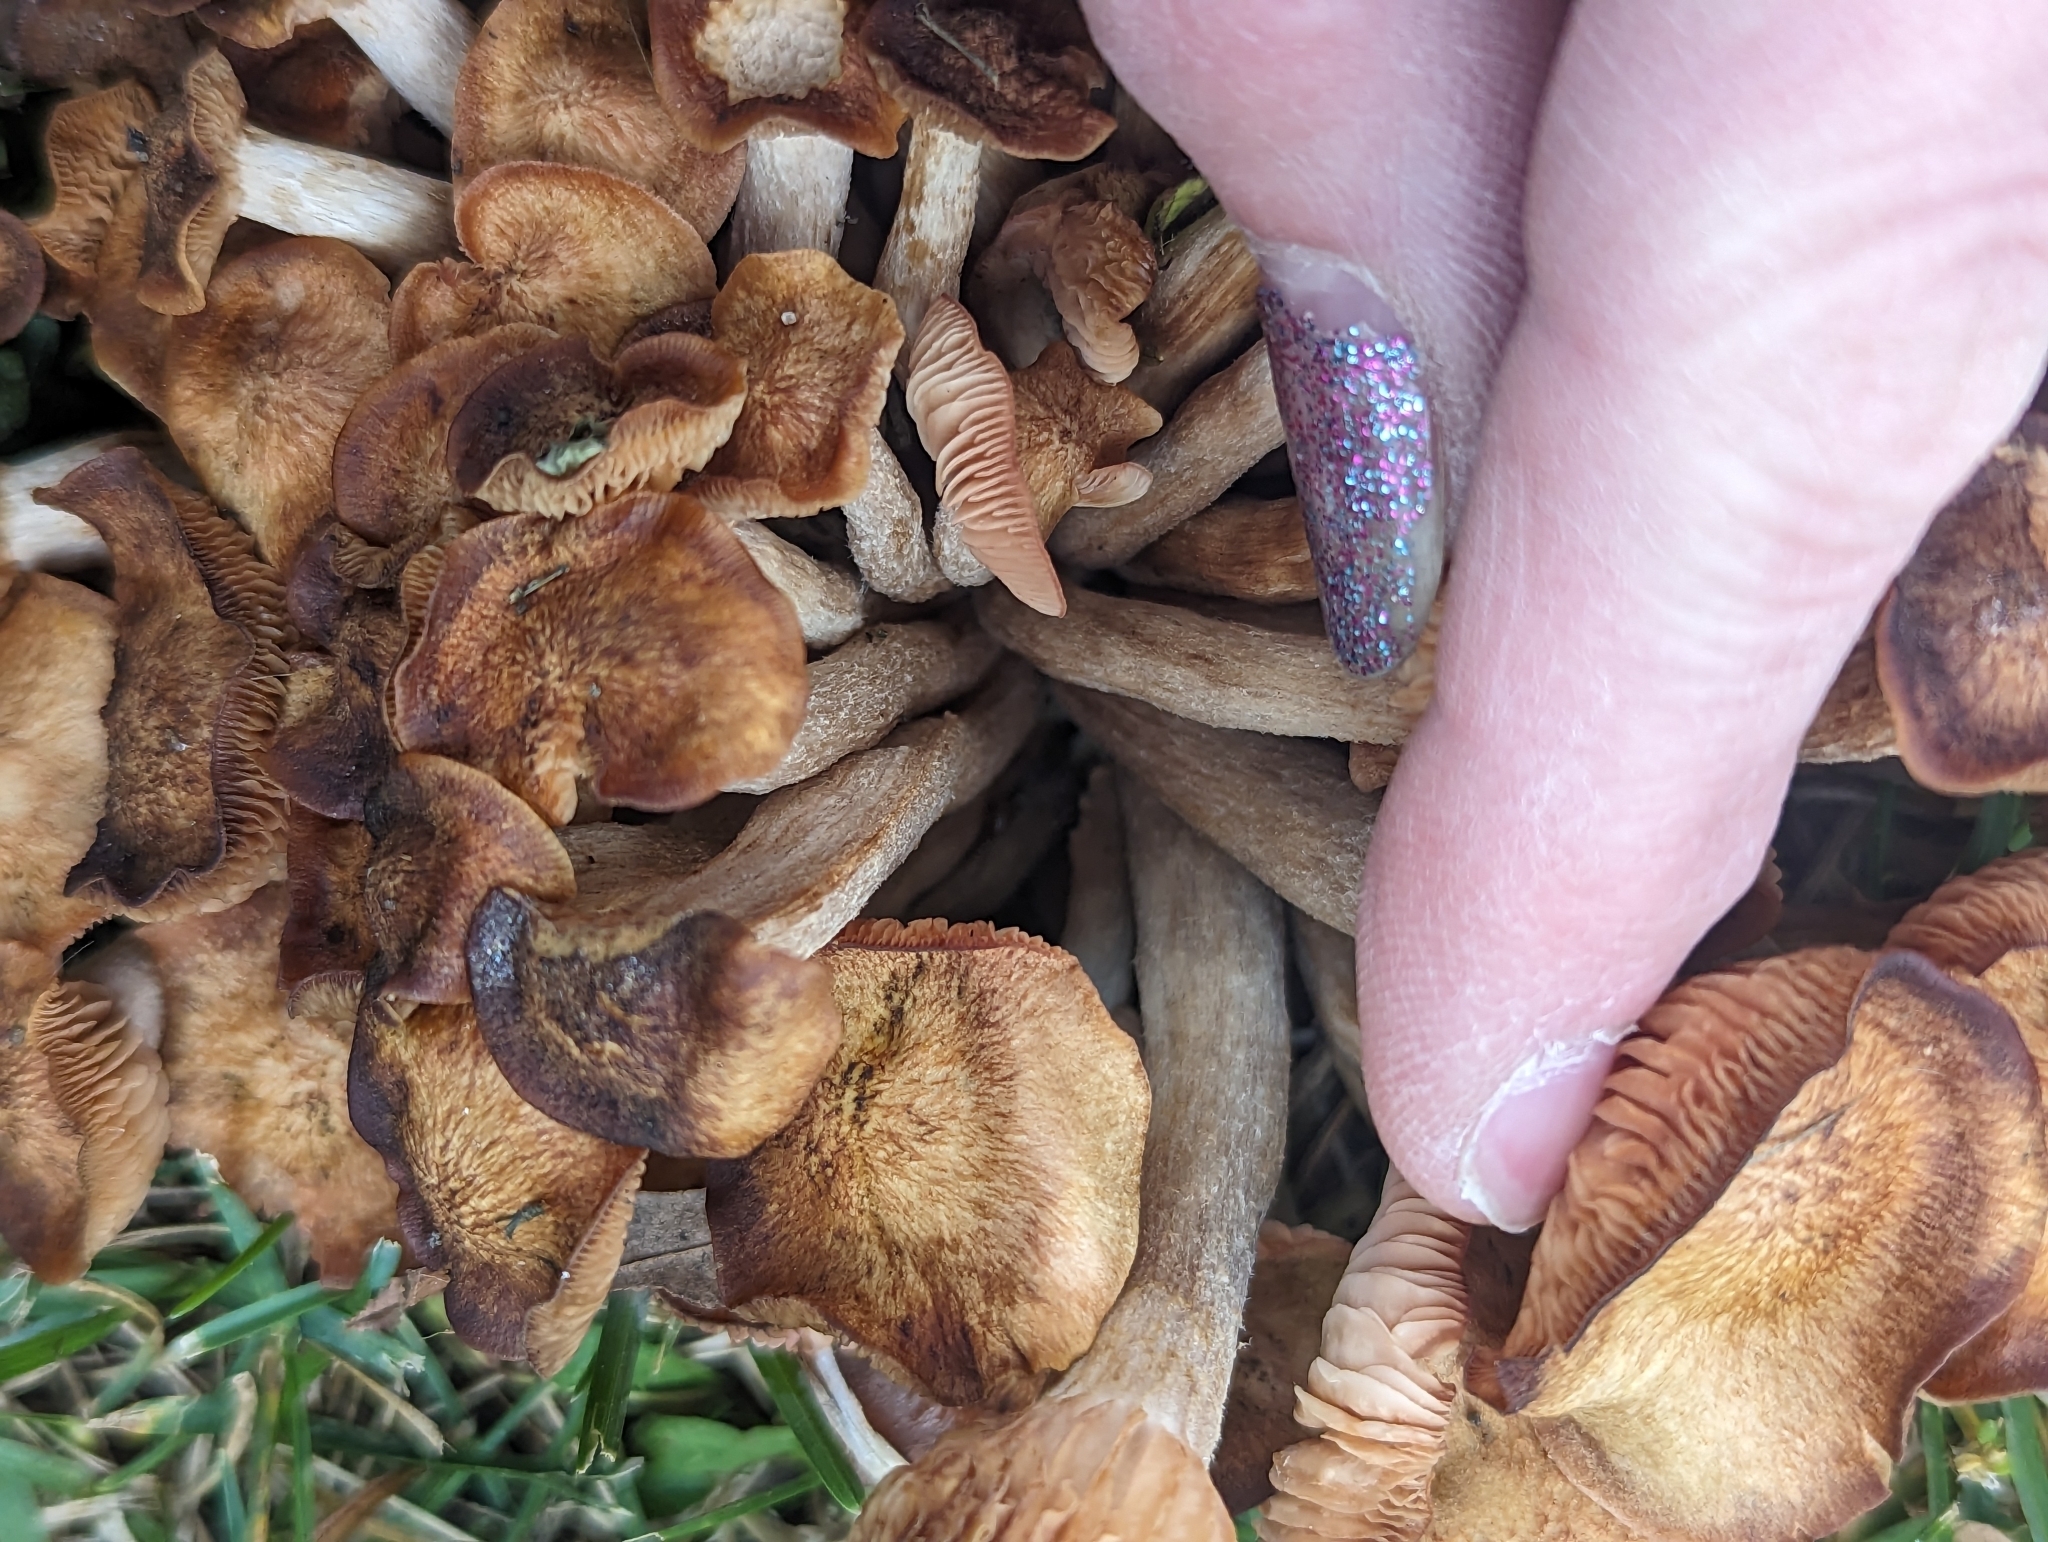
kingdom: Fungi
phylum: Basidiomycota
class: Agaricomycetes
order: Agaricales
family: Physalacriaceae
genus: Desarmillaria
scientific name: Desarmillaria caespitosa
